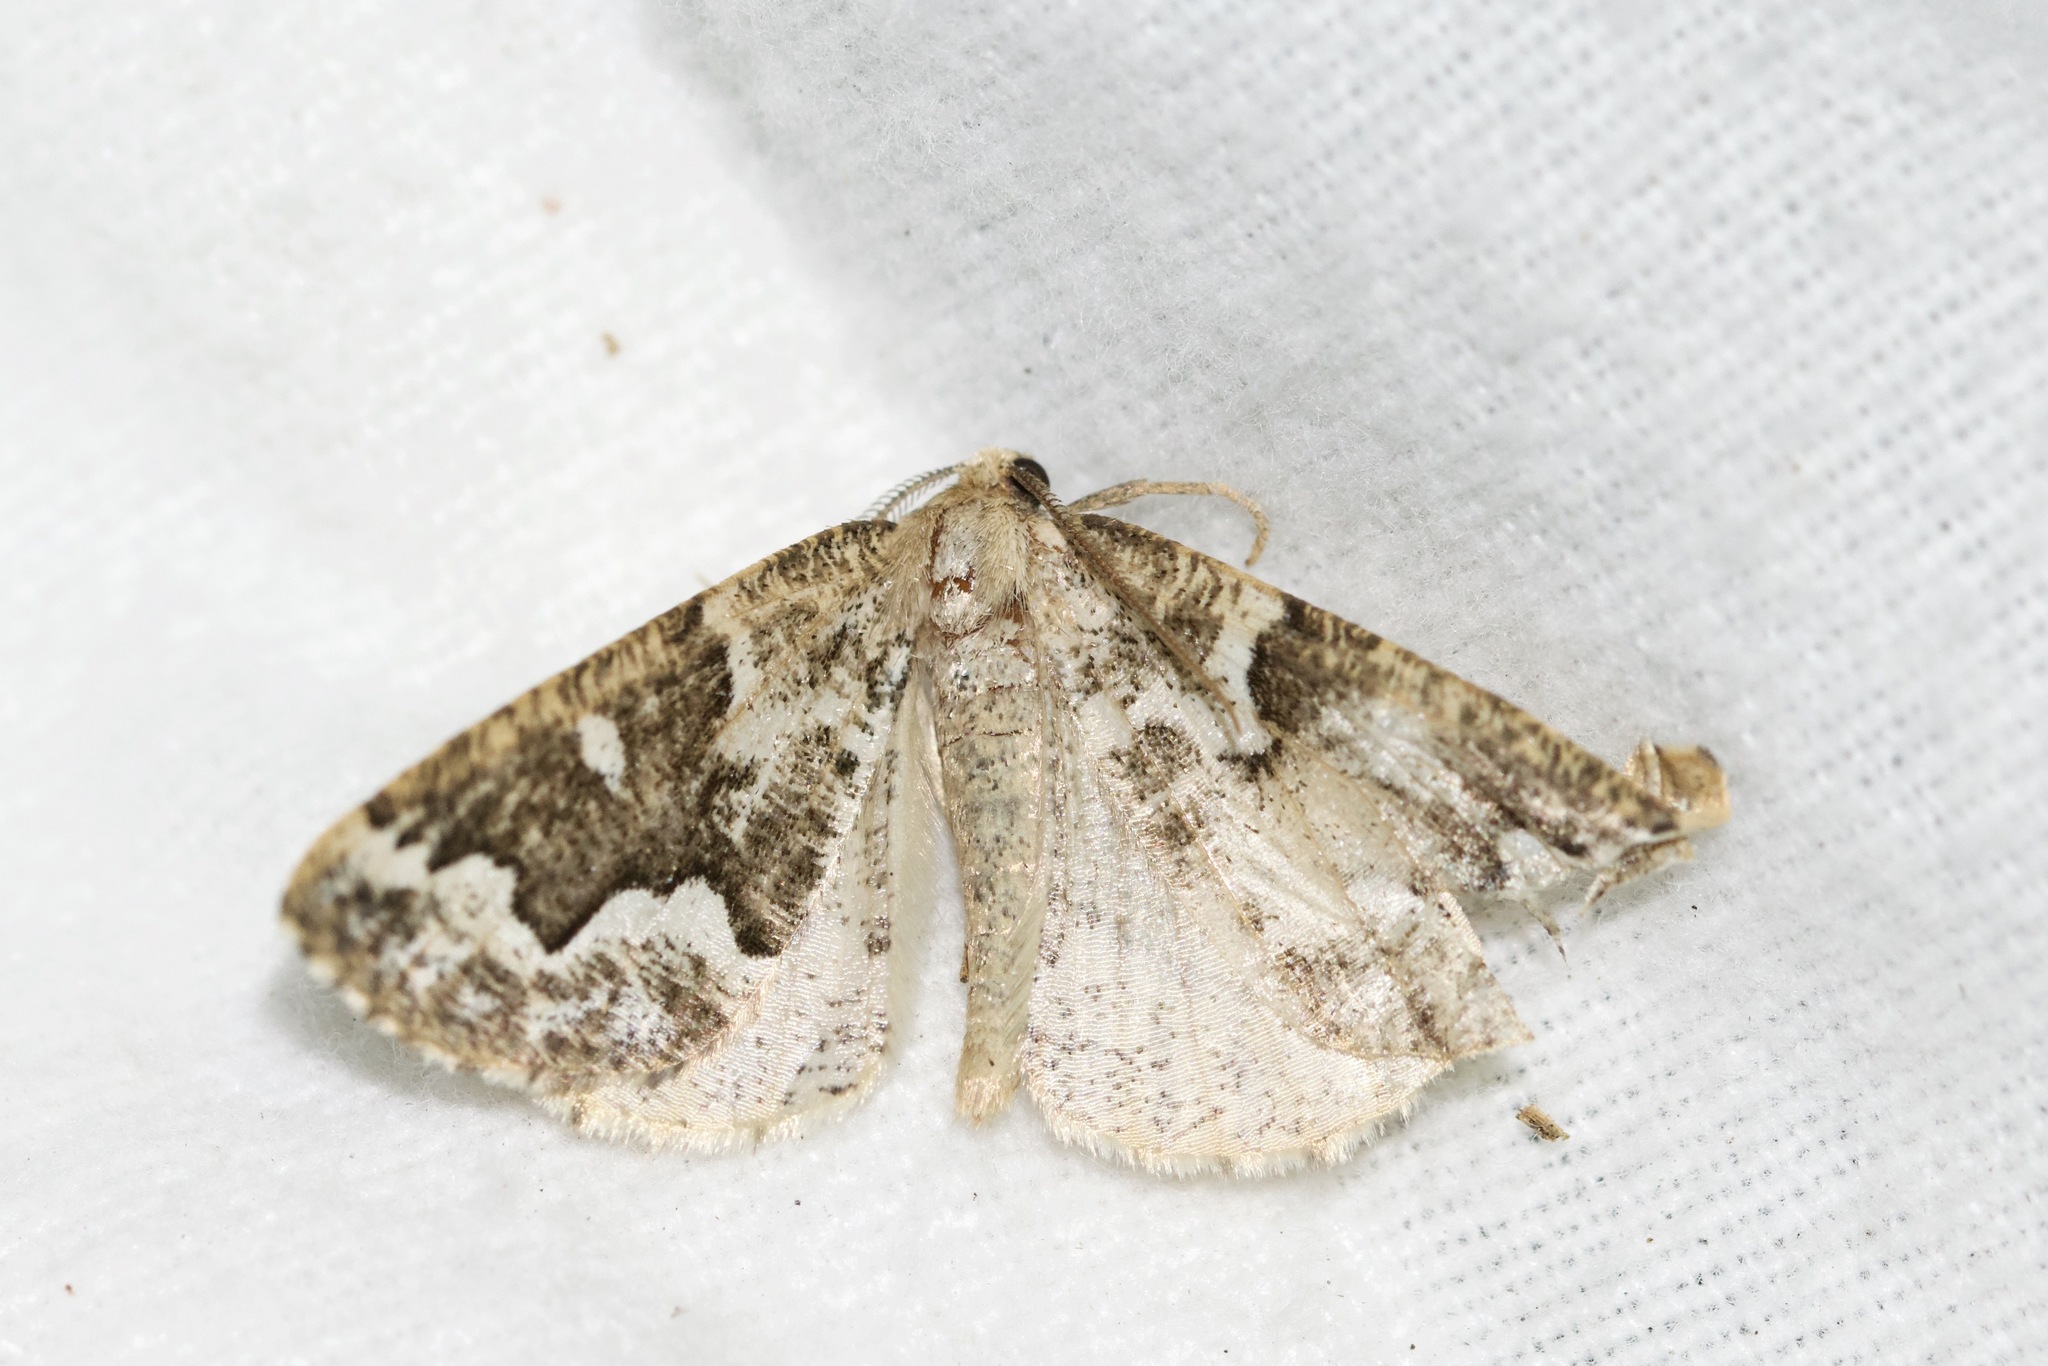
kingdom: Animalia
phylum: Arthropoda
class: Insecta
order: Lepidoptera
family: Geometridae
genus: Caripeta
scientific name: Caripeta divisata
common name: Gray spruce looper
